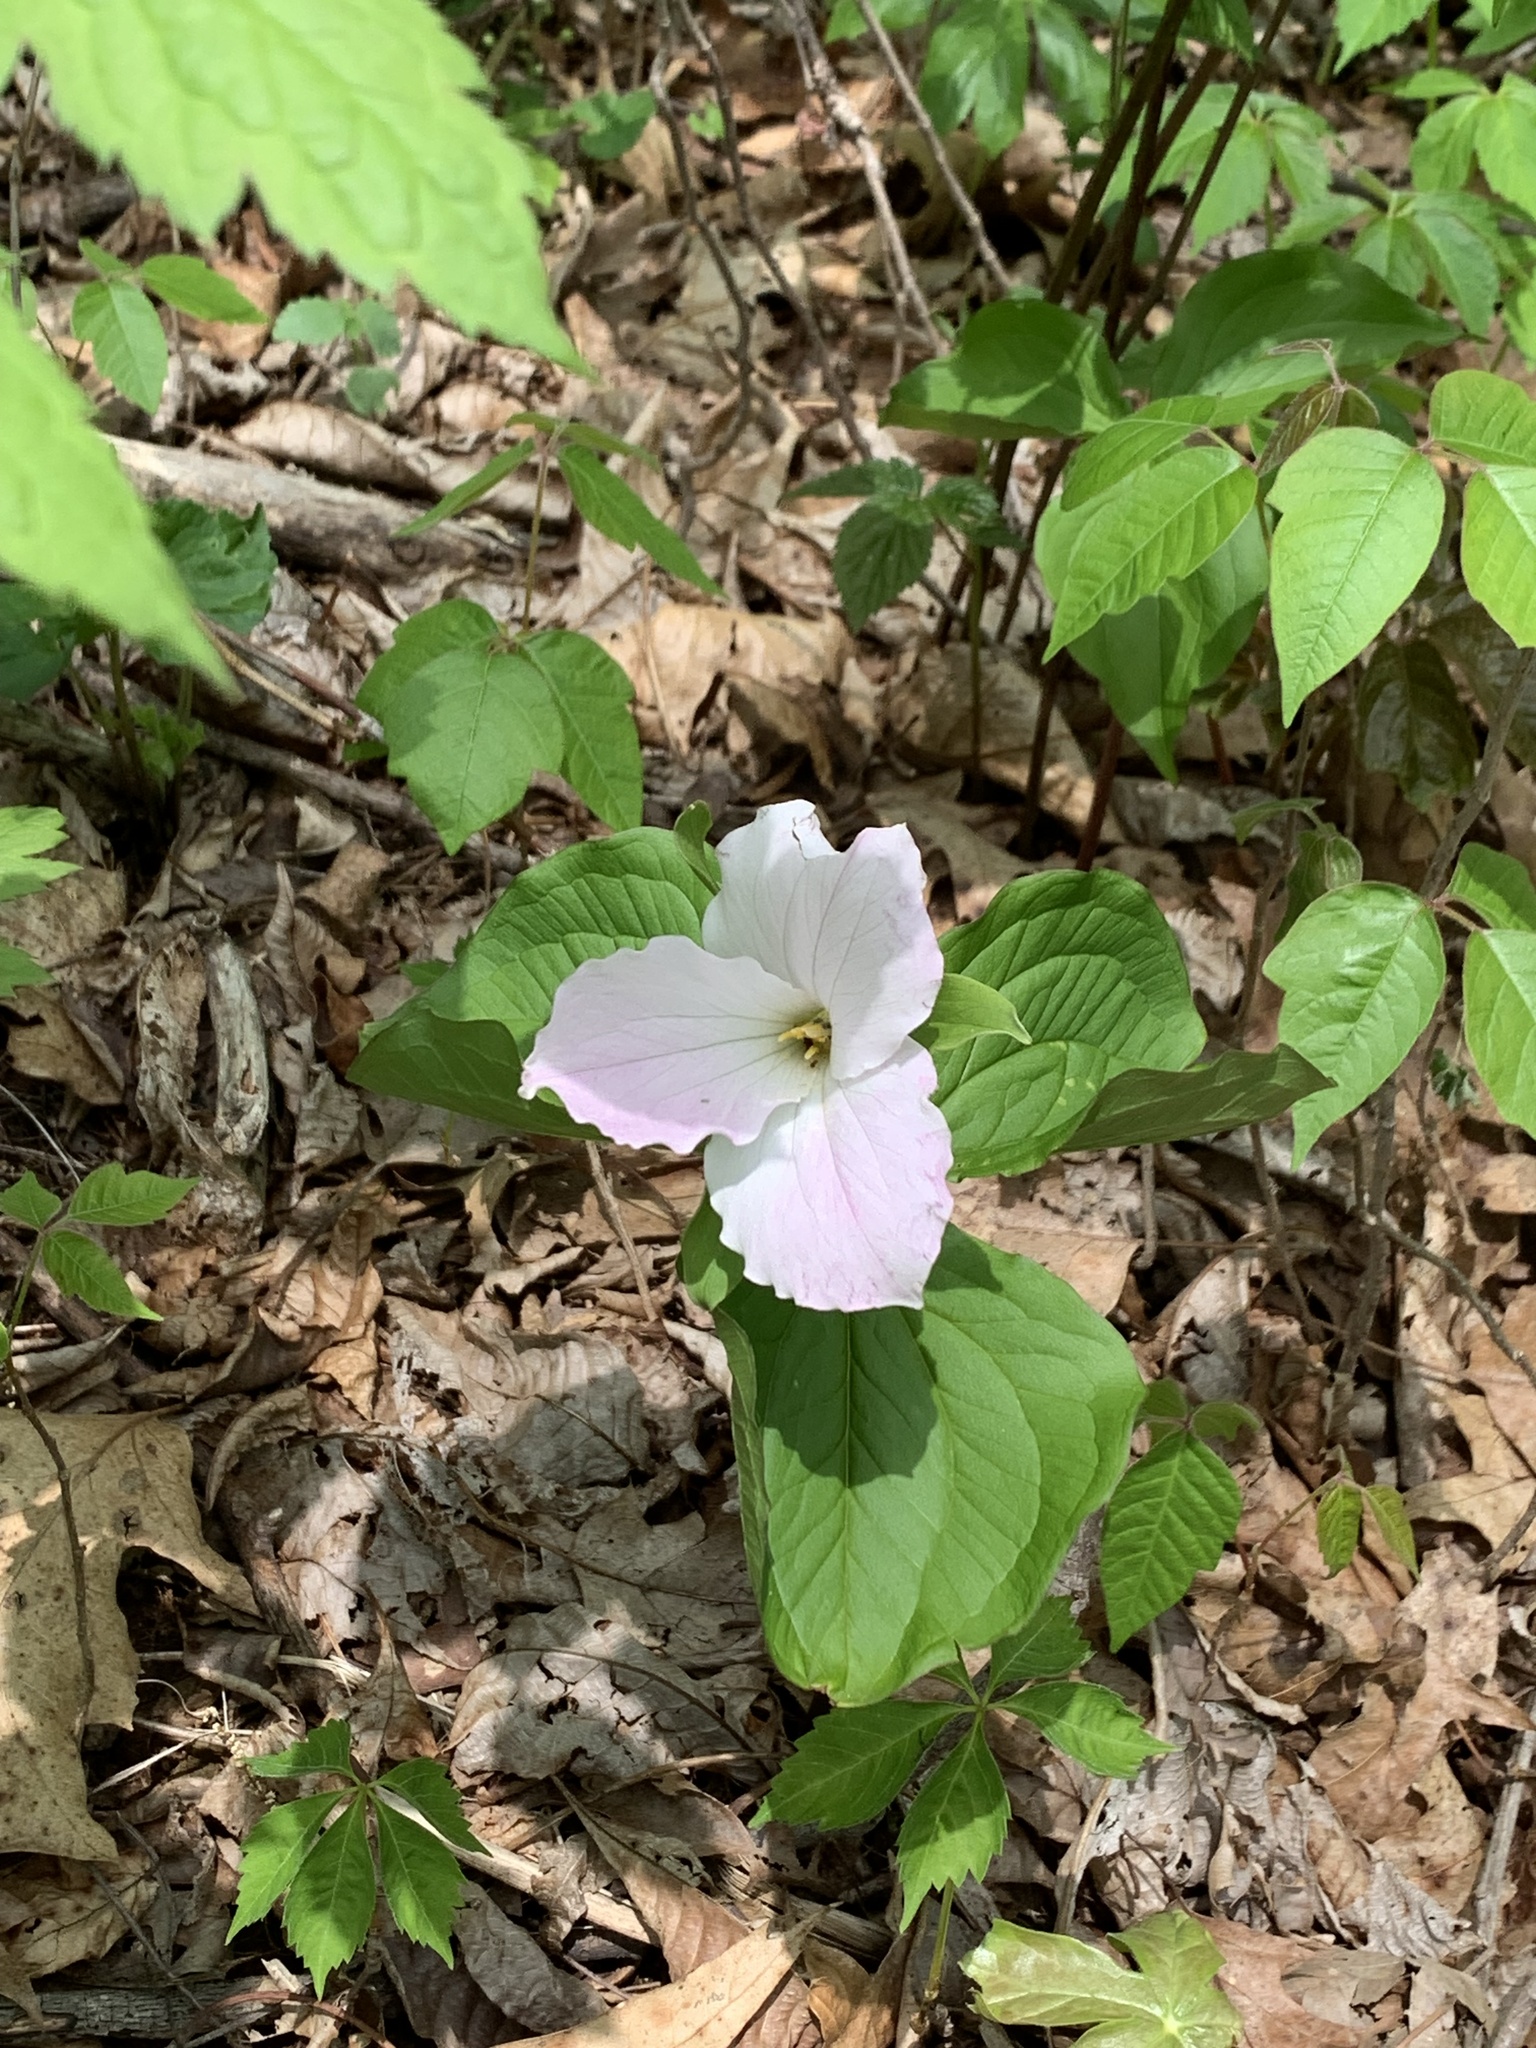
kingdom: Plantae
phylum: Tracheophyta
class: Liliopsida
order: Liliales
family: Melanthiaceae
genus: Trillium
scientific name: Trillium grandiflorum
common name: Great white trillium
